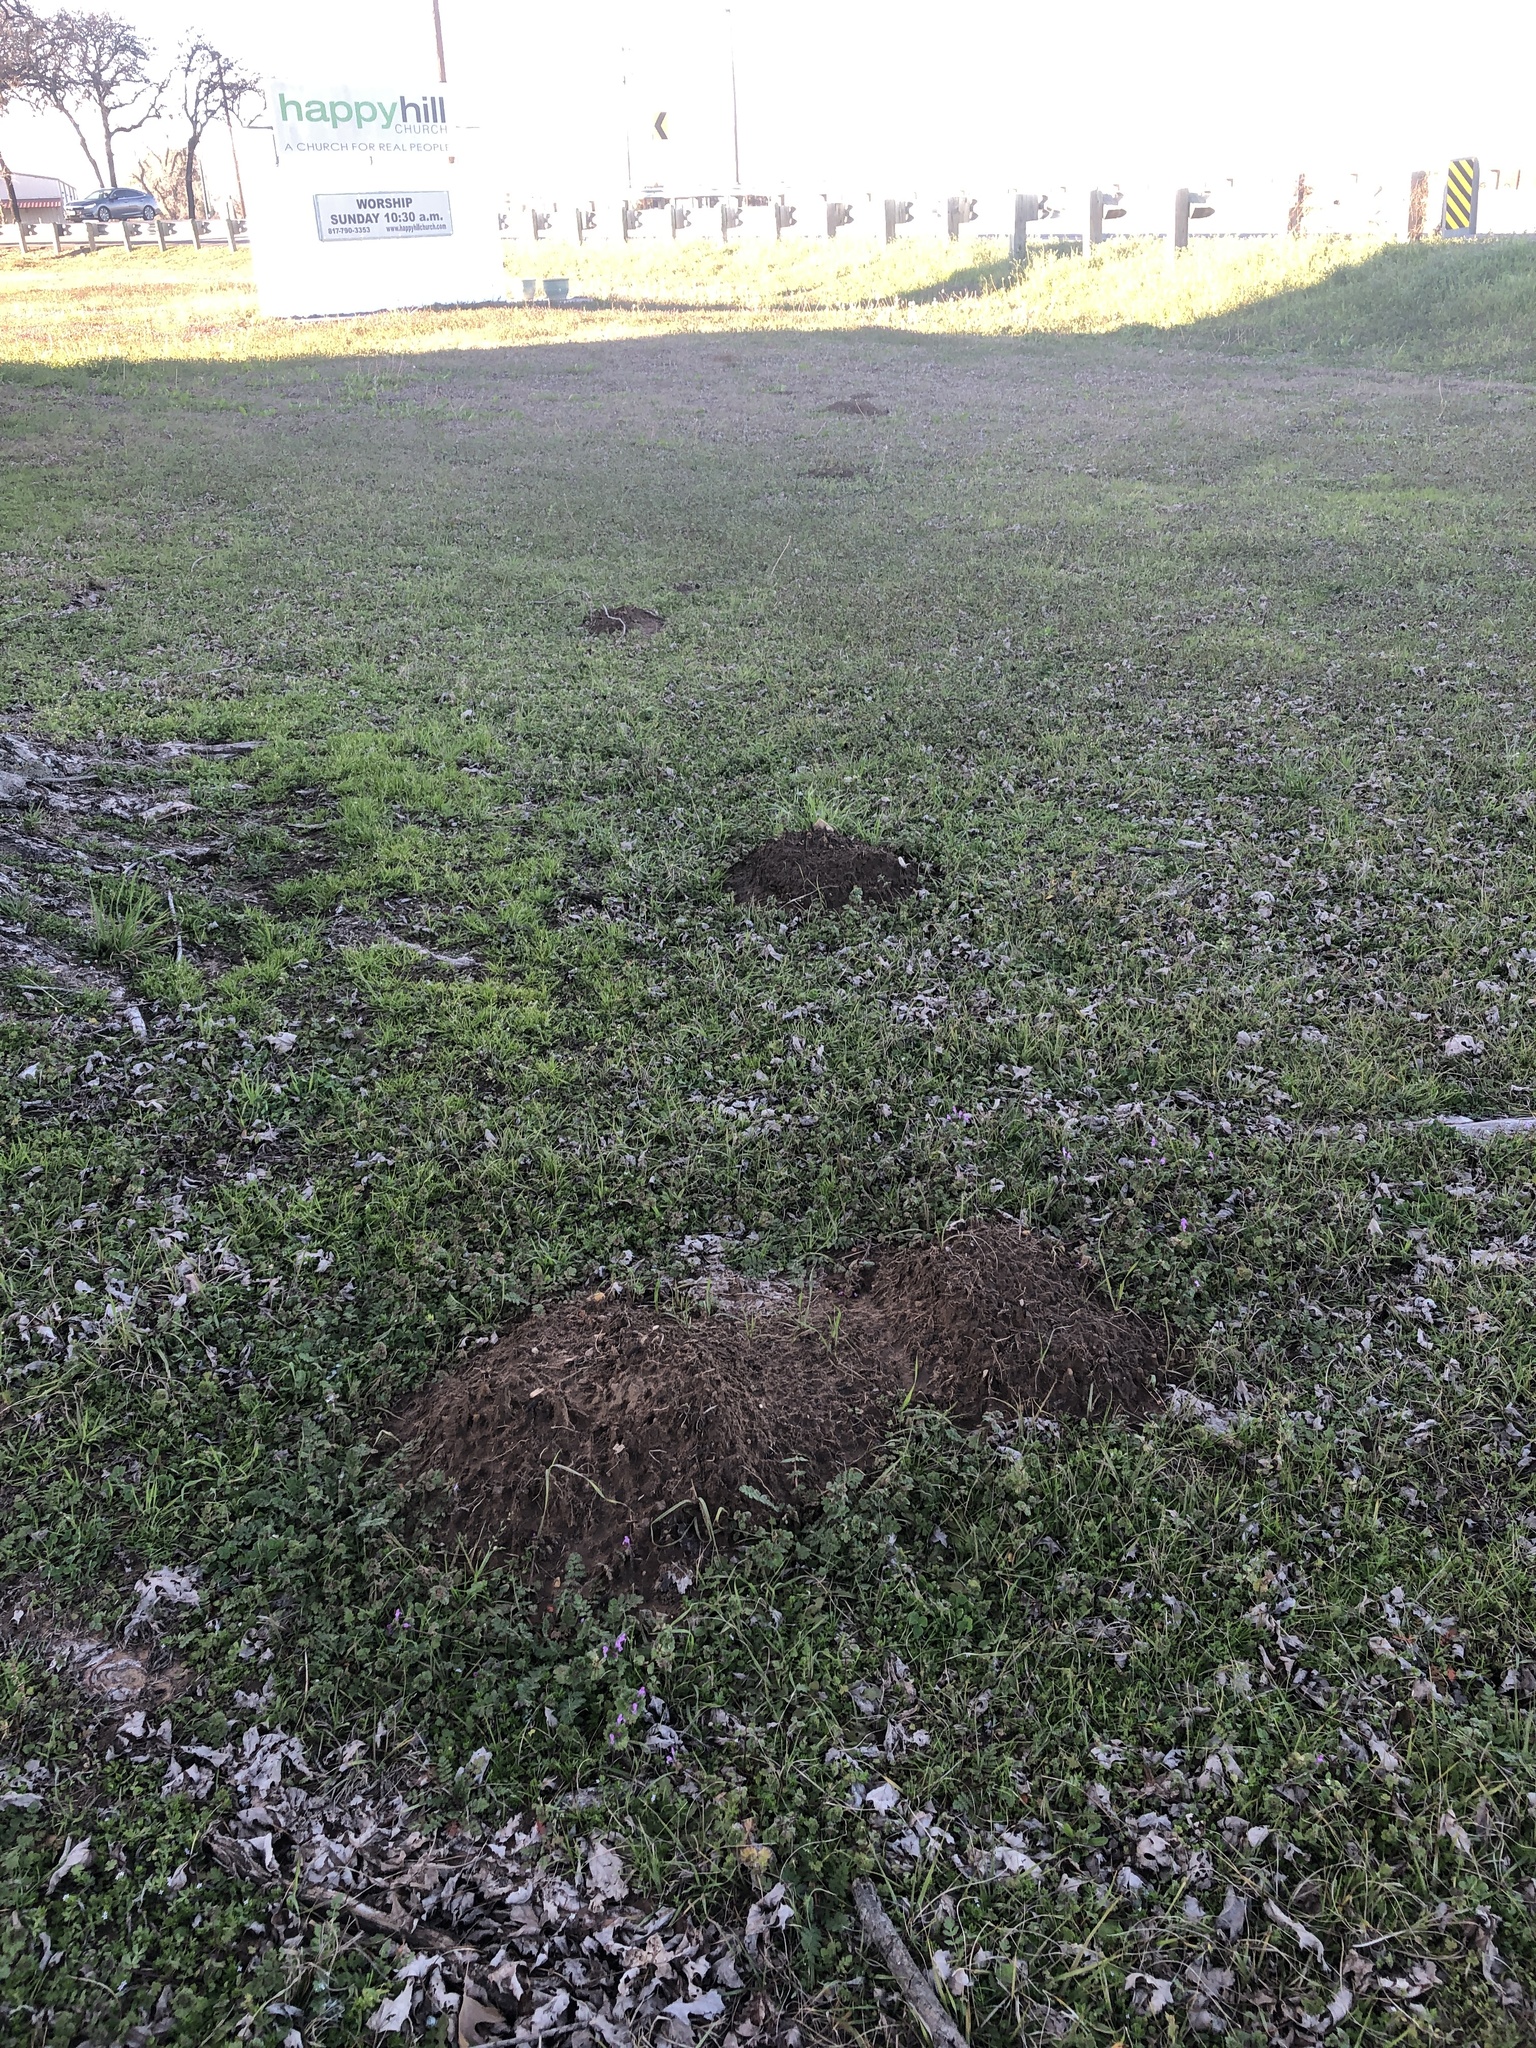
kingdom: Animalia
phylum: Chordata
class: Mammalia
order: Rodentia
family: Geomyidae
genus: Geomys
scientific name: Geomys bursarius
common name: Plains pocket gopher
